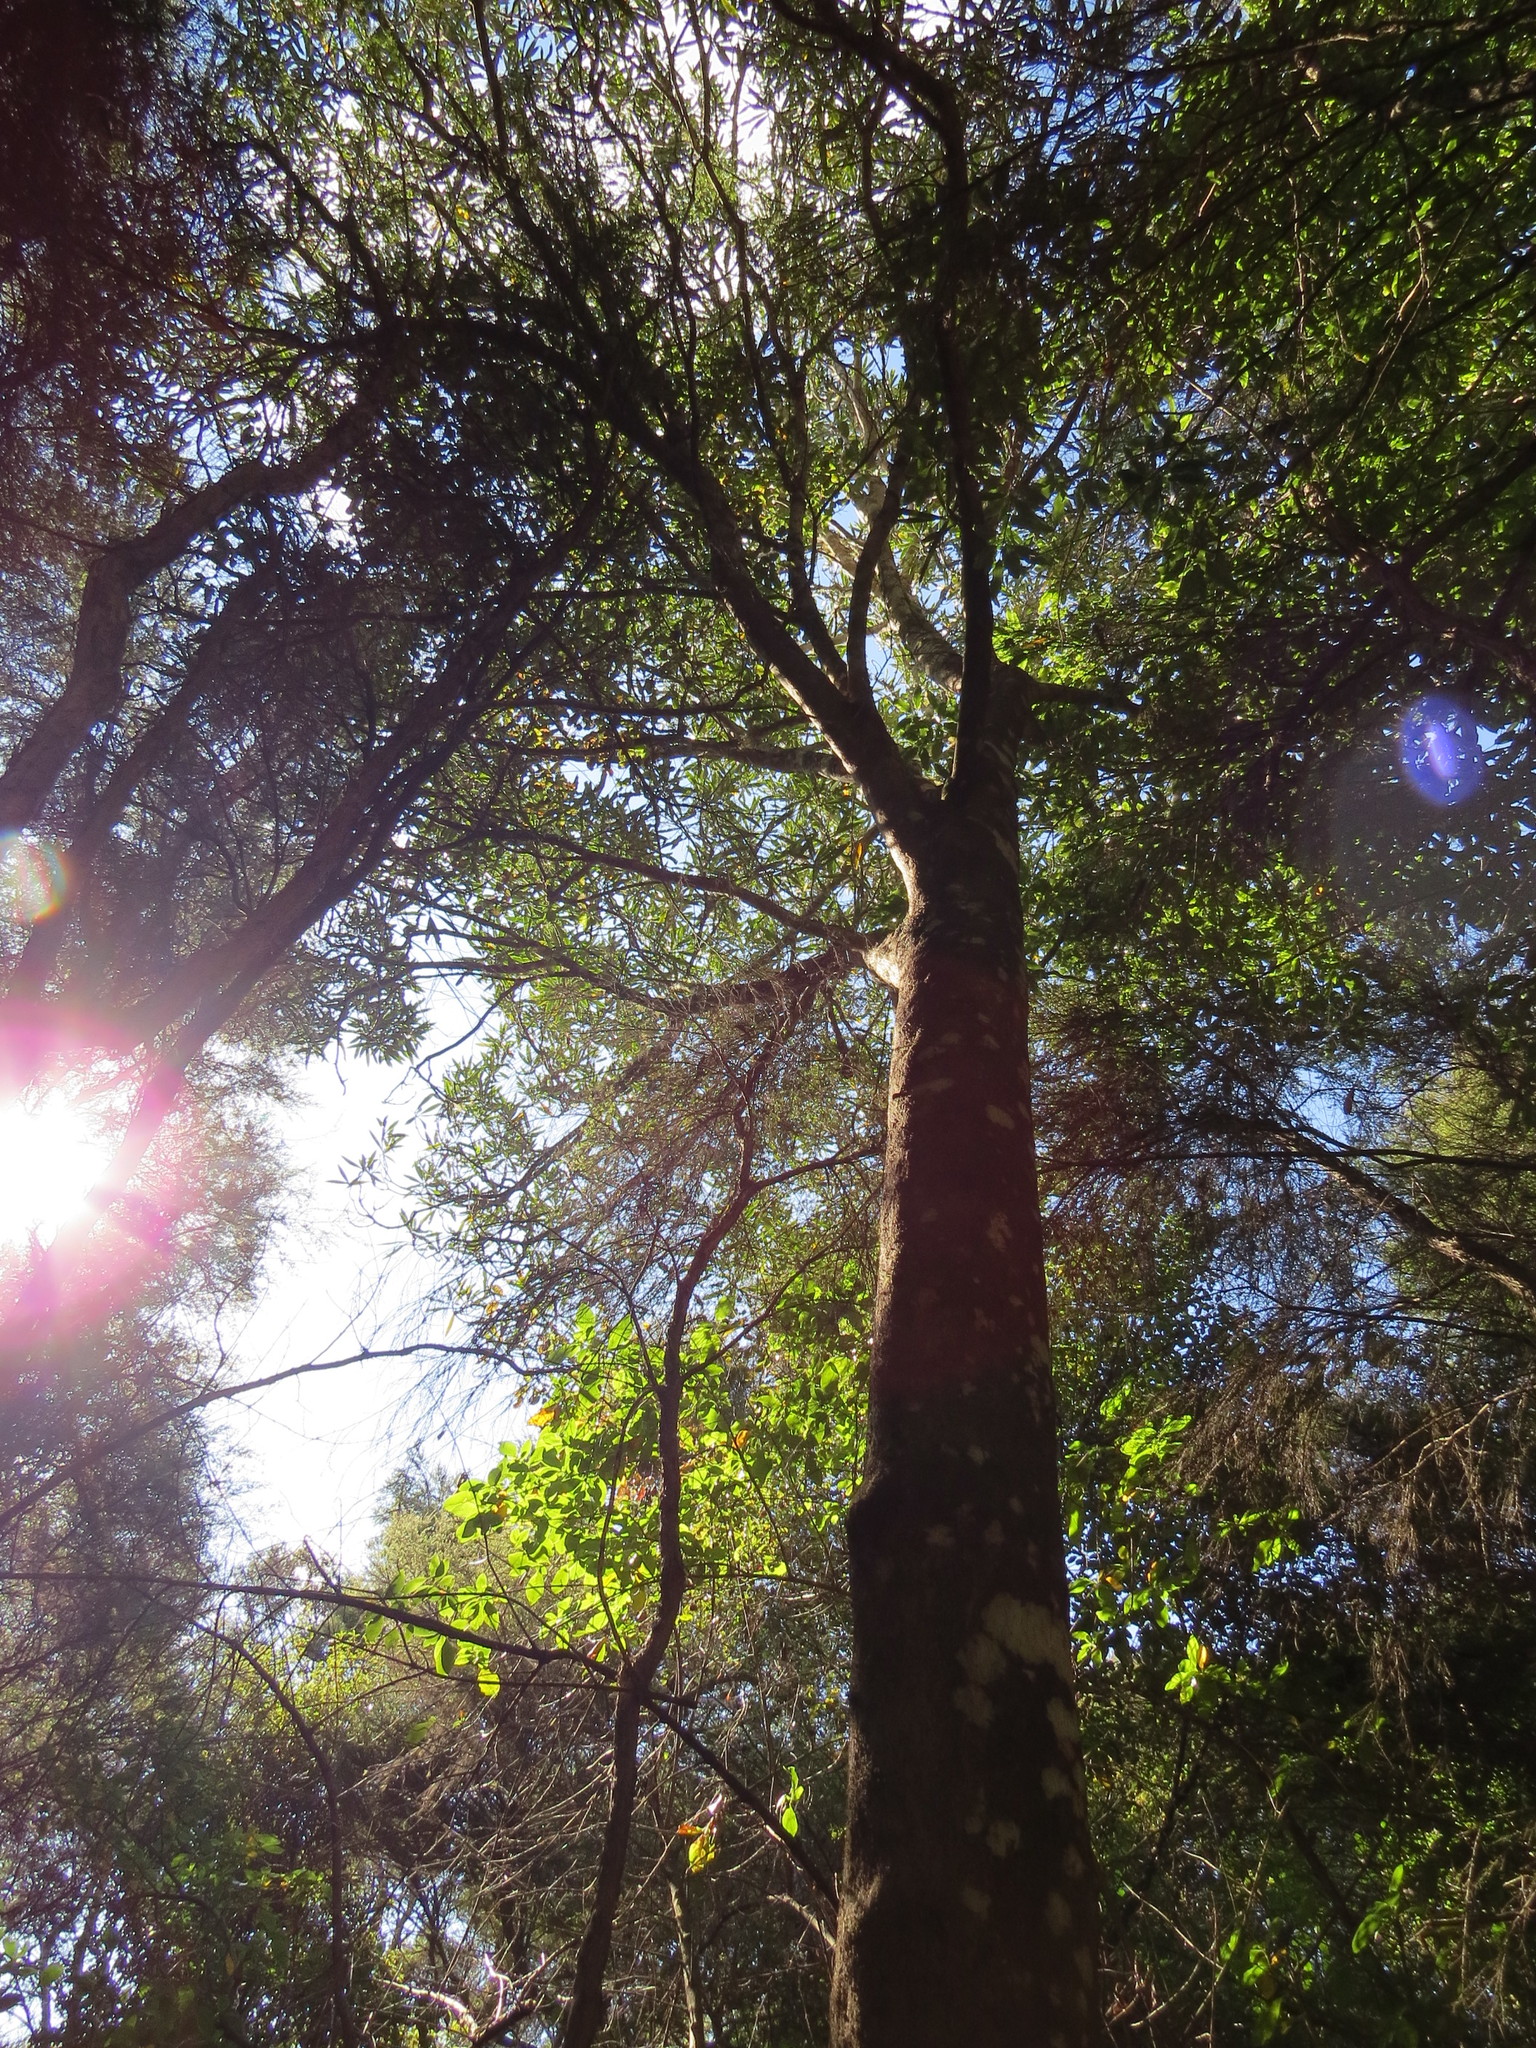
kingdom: Plantae
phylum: Tracheophyta
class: Pinopsida
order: Pinales
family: Podocarpaceae
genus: Prumnopitys
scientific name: Prumnopitys taxifolia
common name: Matai
